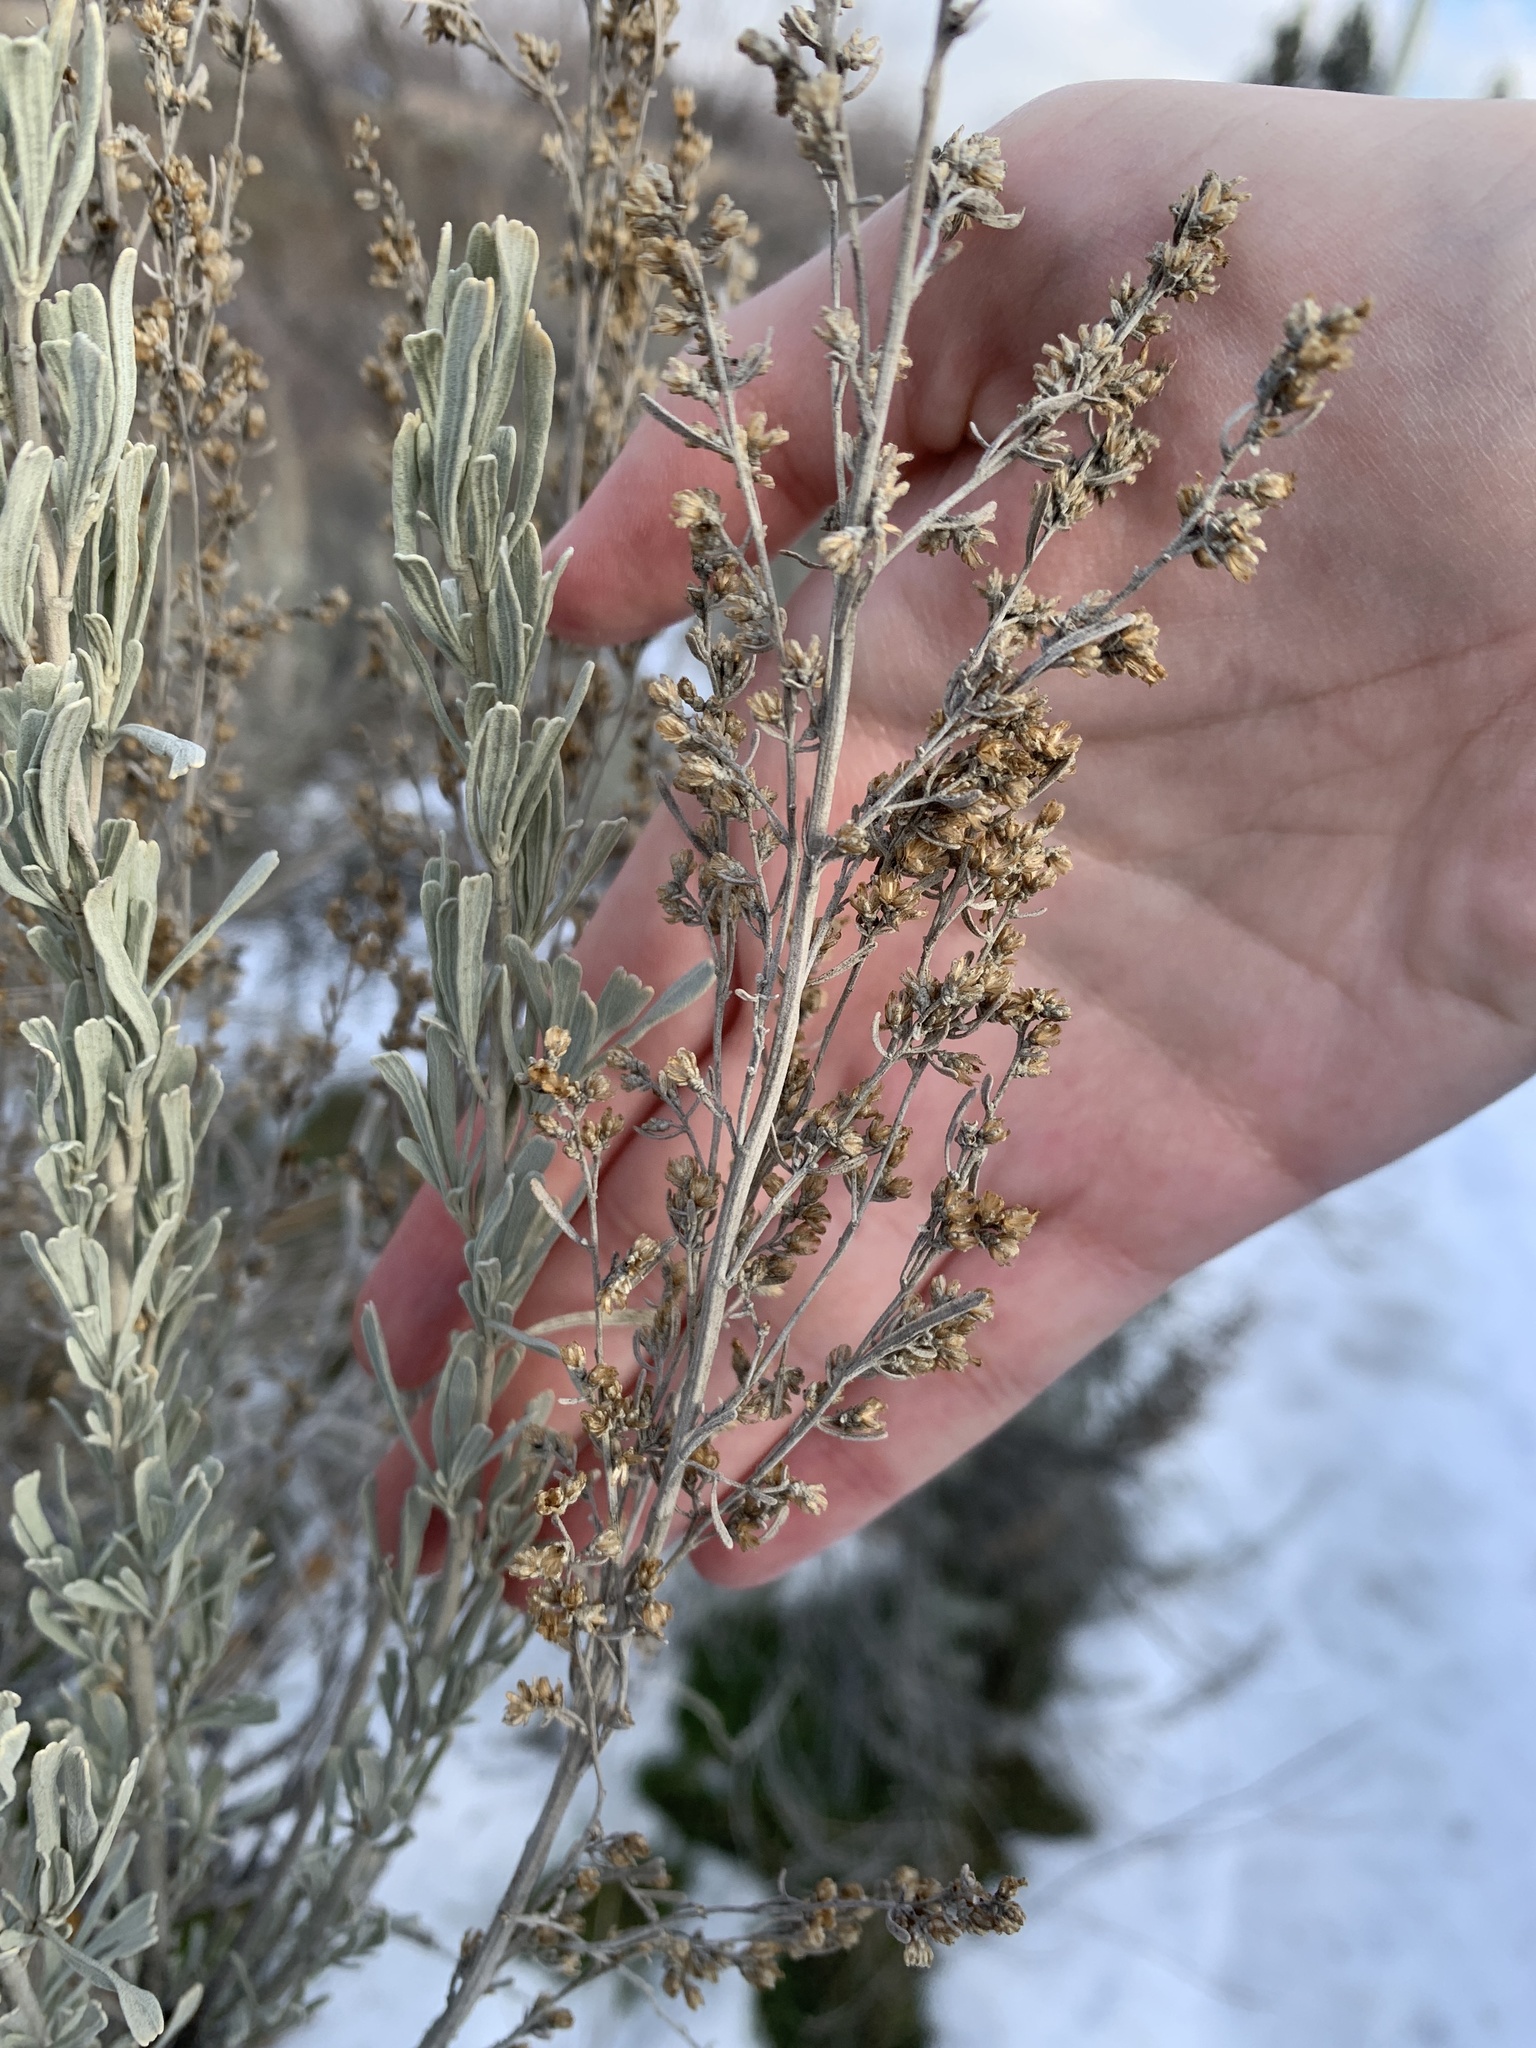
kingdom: Plantae
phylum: Tracheophyta
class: Magnoliopsida
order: Asterales
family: Asteraceae
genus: Artemisia
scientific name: Artemisia tridentata
